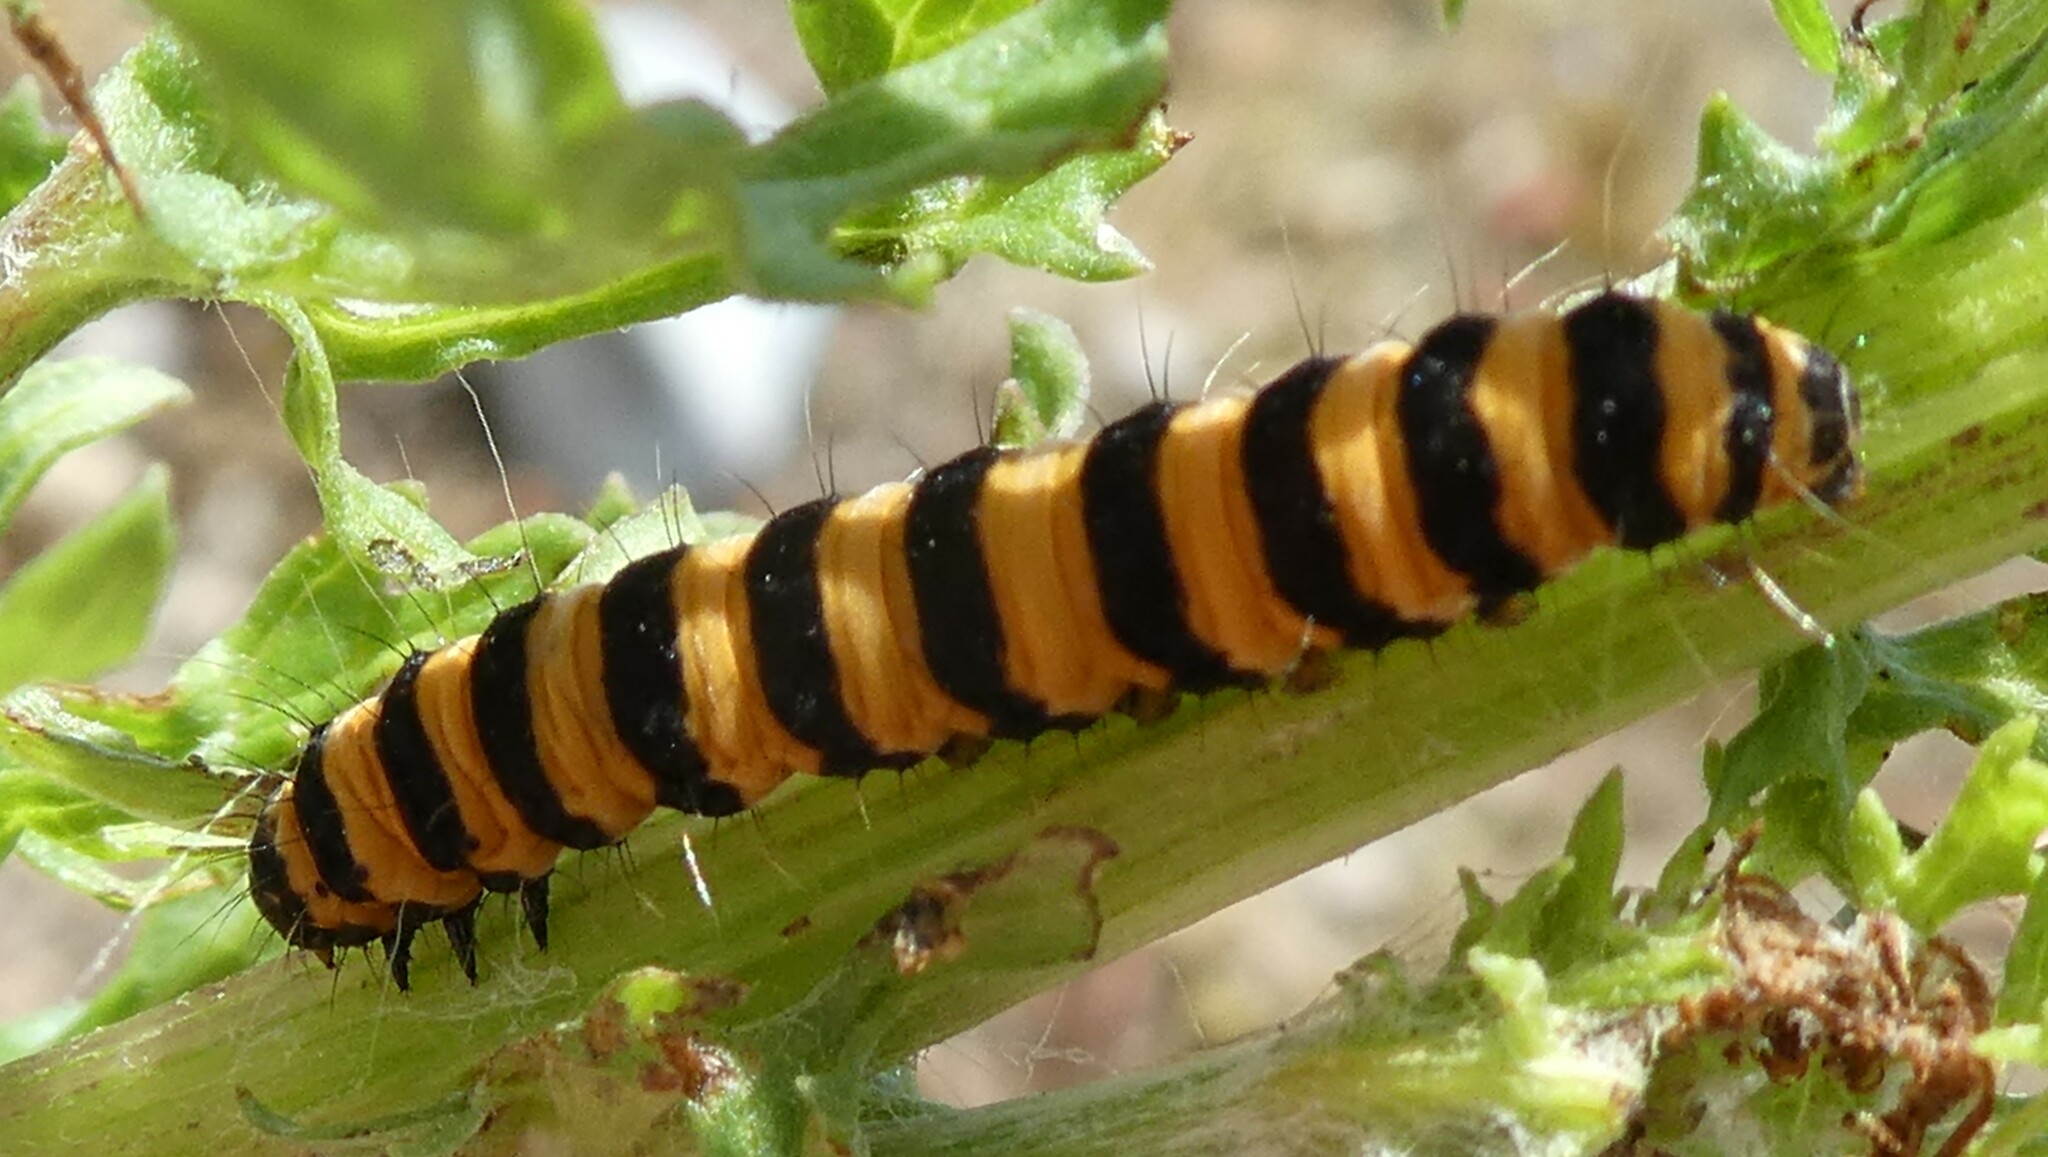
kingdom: Animalia
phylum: Arthropoda
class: Insecta
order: Lepidoptera
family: Erebidae
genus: Tyria
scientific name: Tyria jacobaeae
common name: Cinnabar
